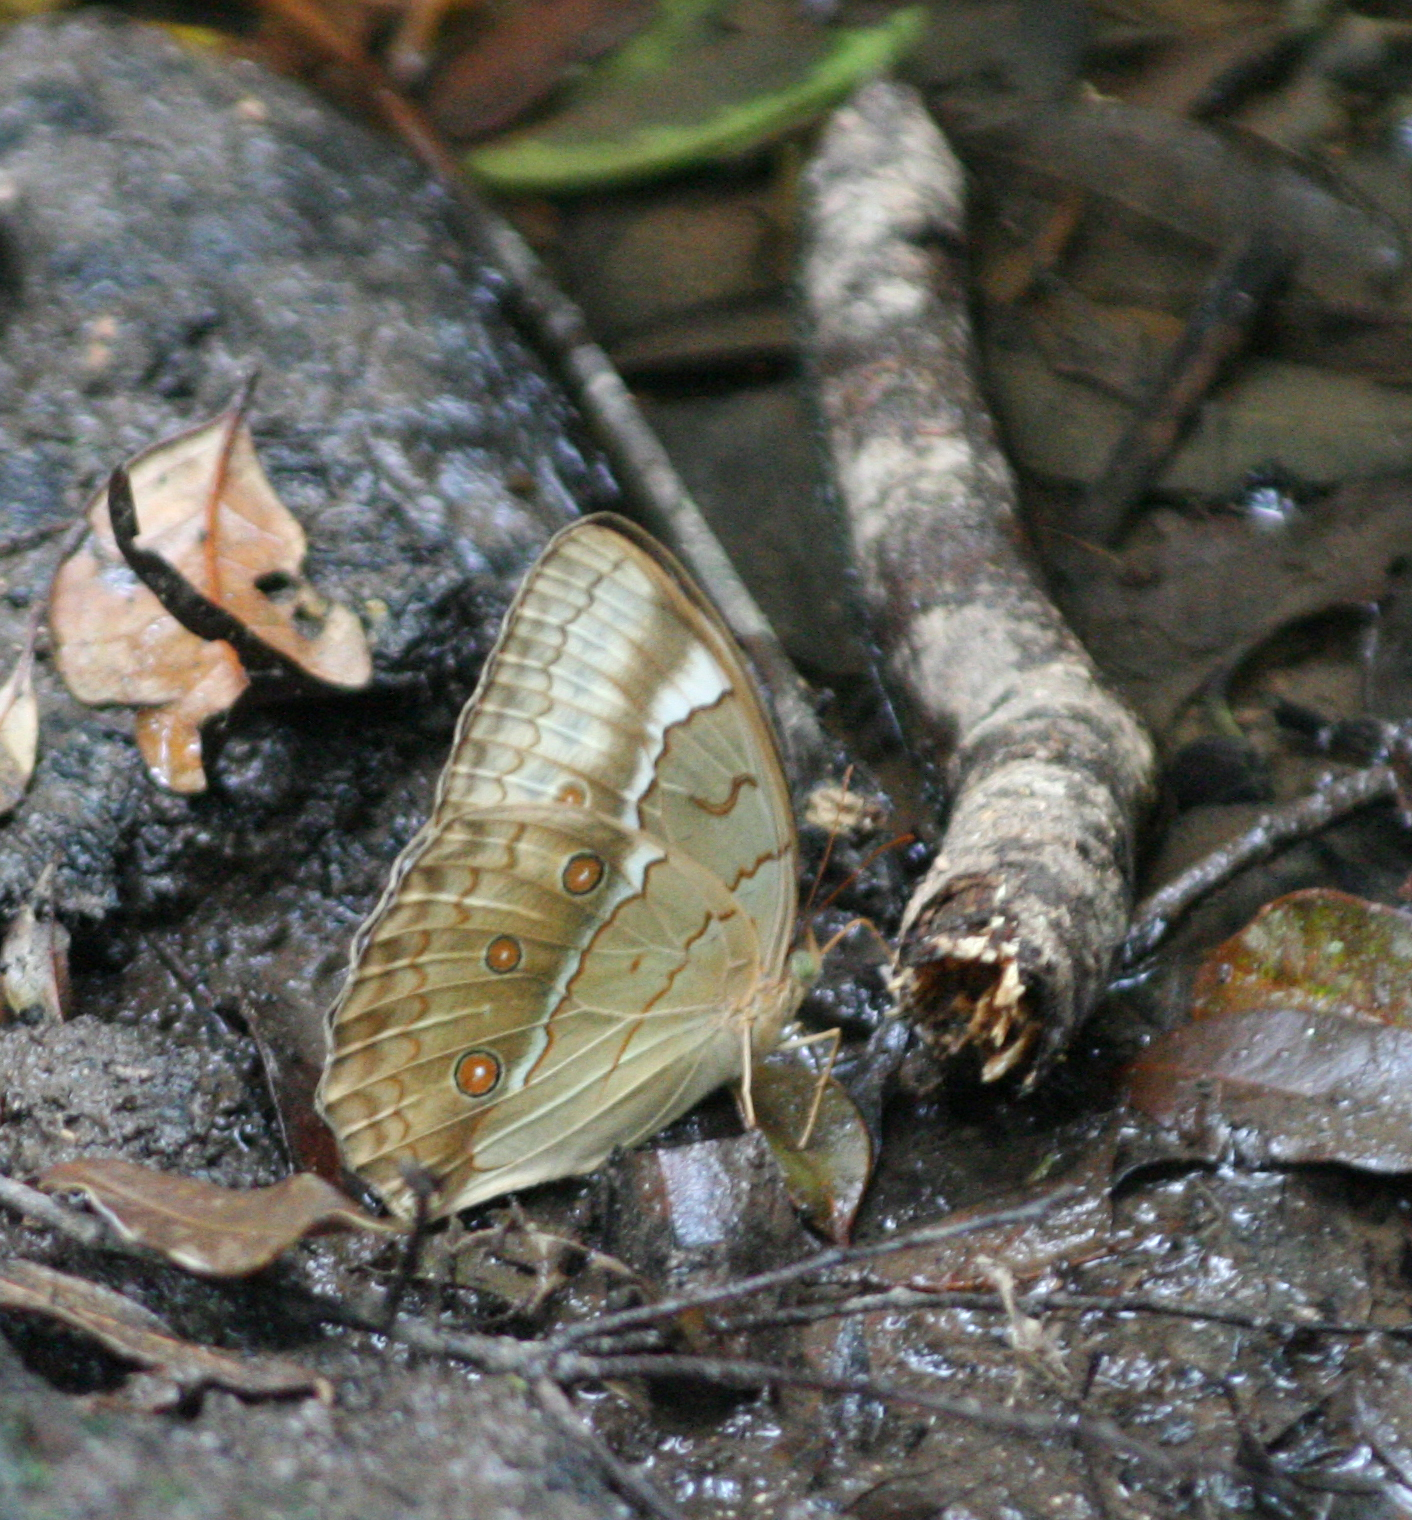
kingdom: Animalia
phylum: Arthropoda
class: Insecta
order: Lepidoptera
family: Nymphalidae
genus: Stichophthalma
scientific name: Stichophthalma cambodia
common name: Cambodian junglequeen
